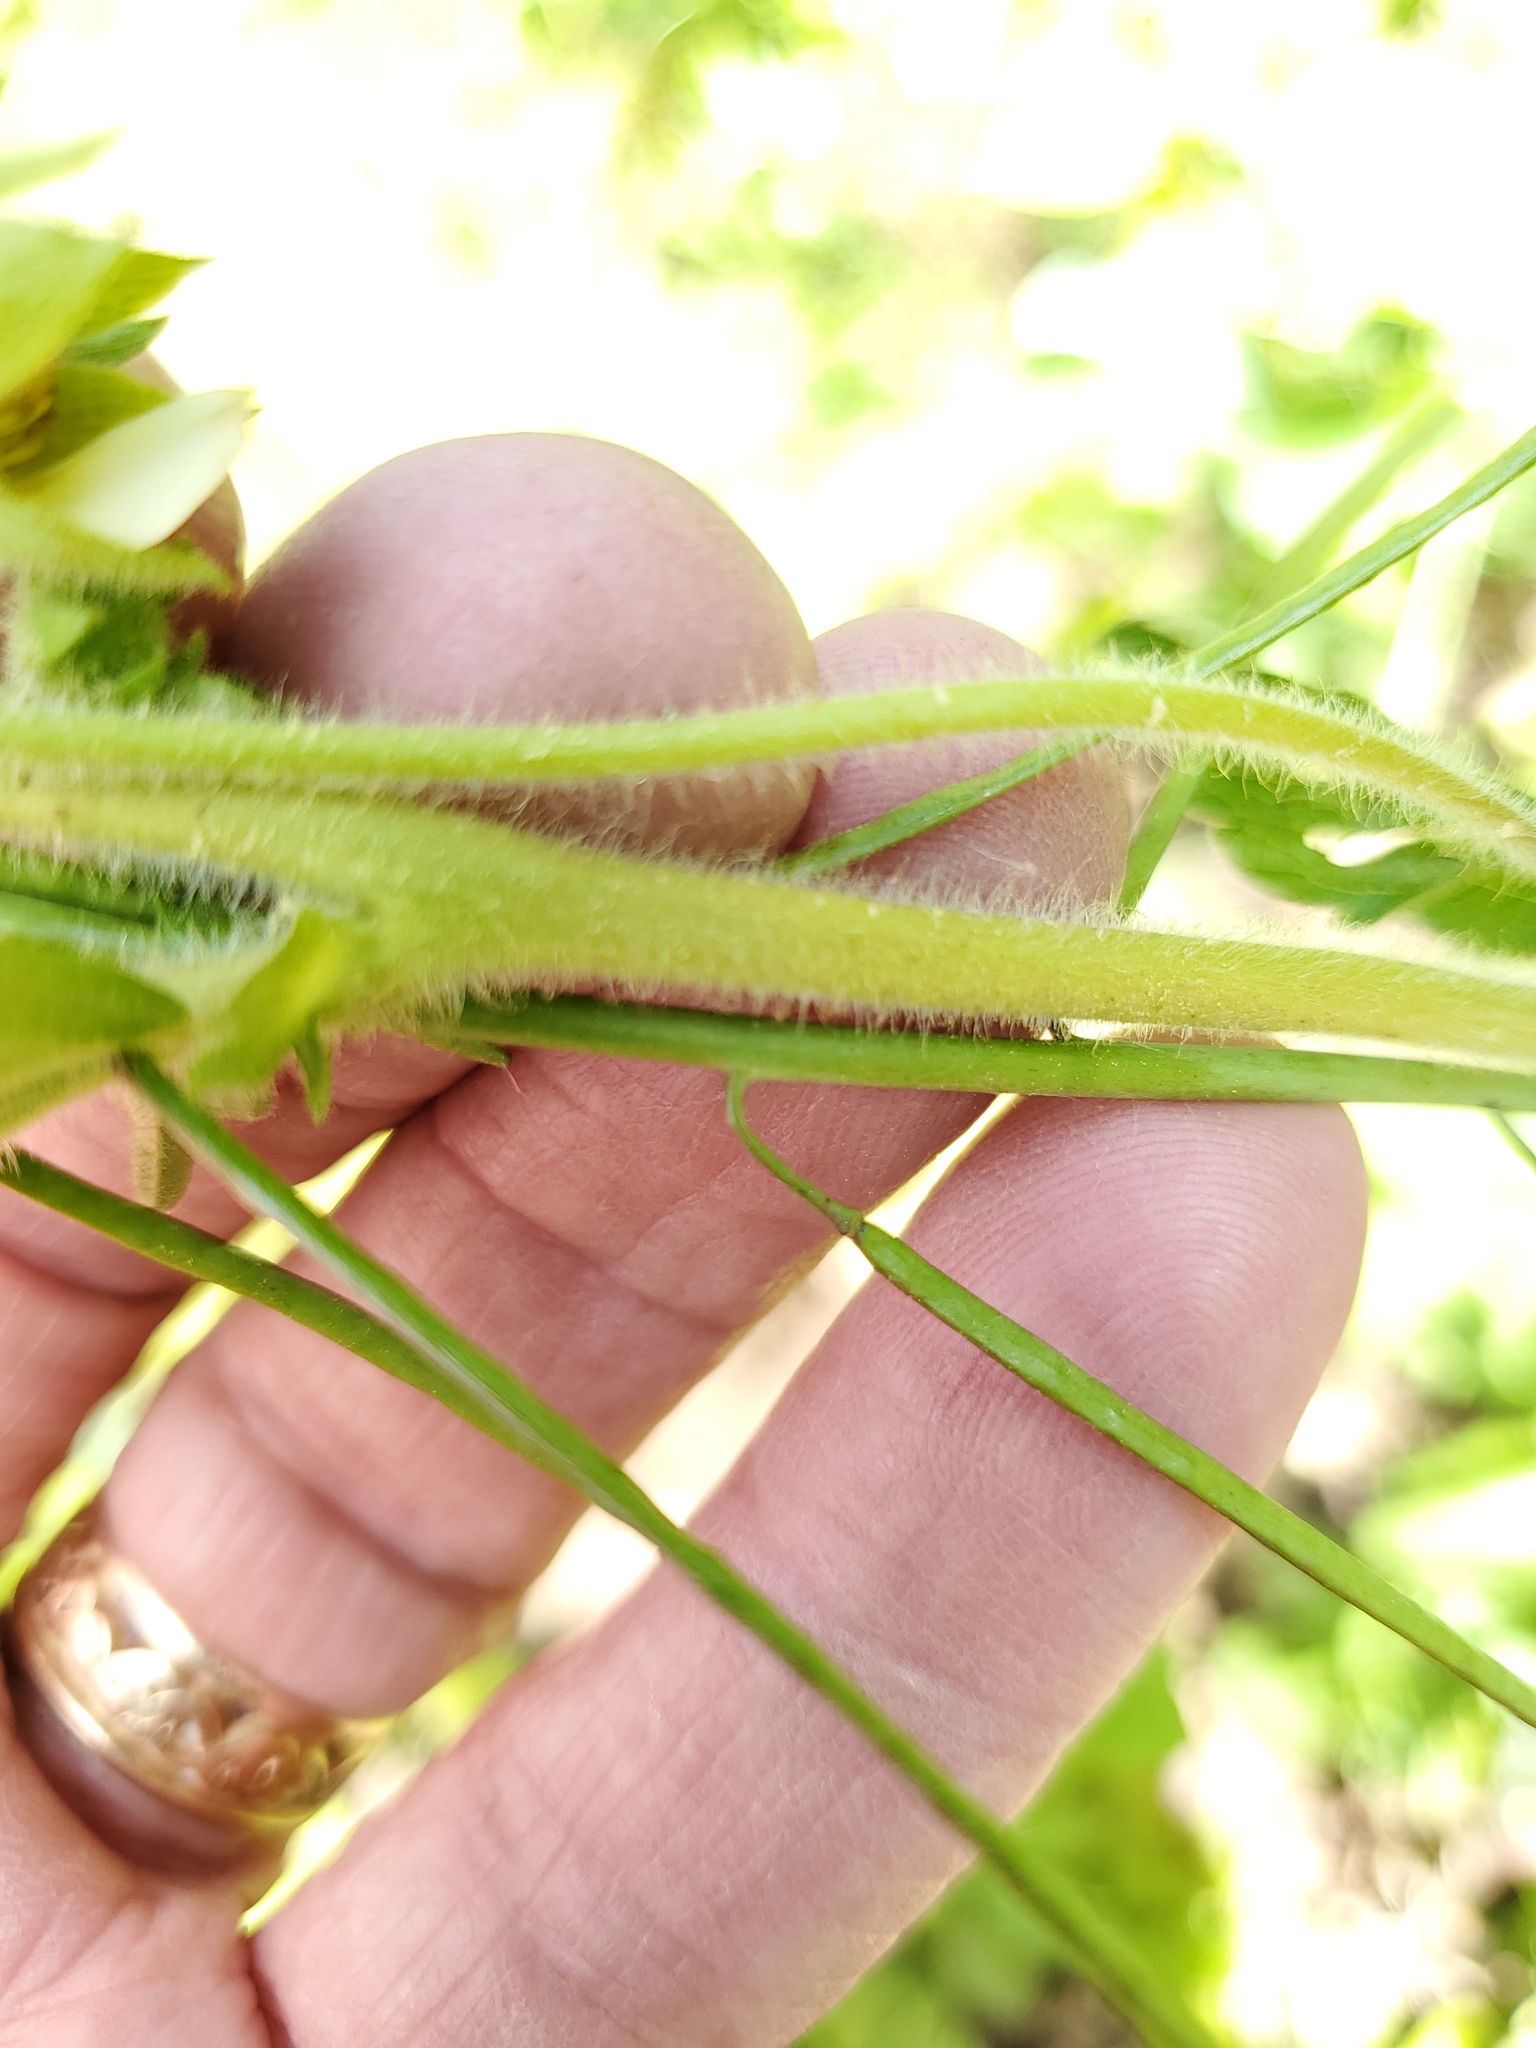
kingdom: Plantae
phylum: Tracheophyta
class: Magnoliopsida
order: Rosales
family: Rosaceae
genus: Potentilla
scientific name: Potentilla recta
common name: Sulphur cinquefoil
